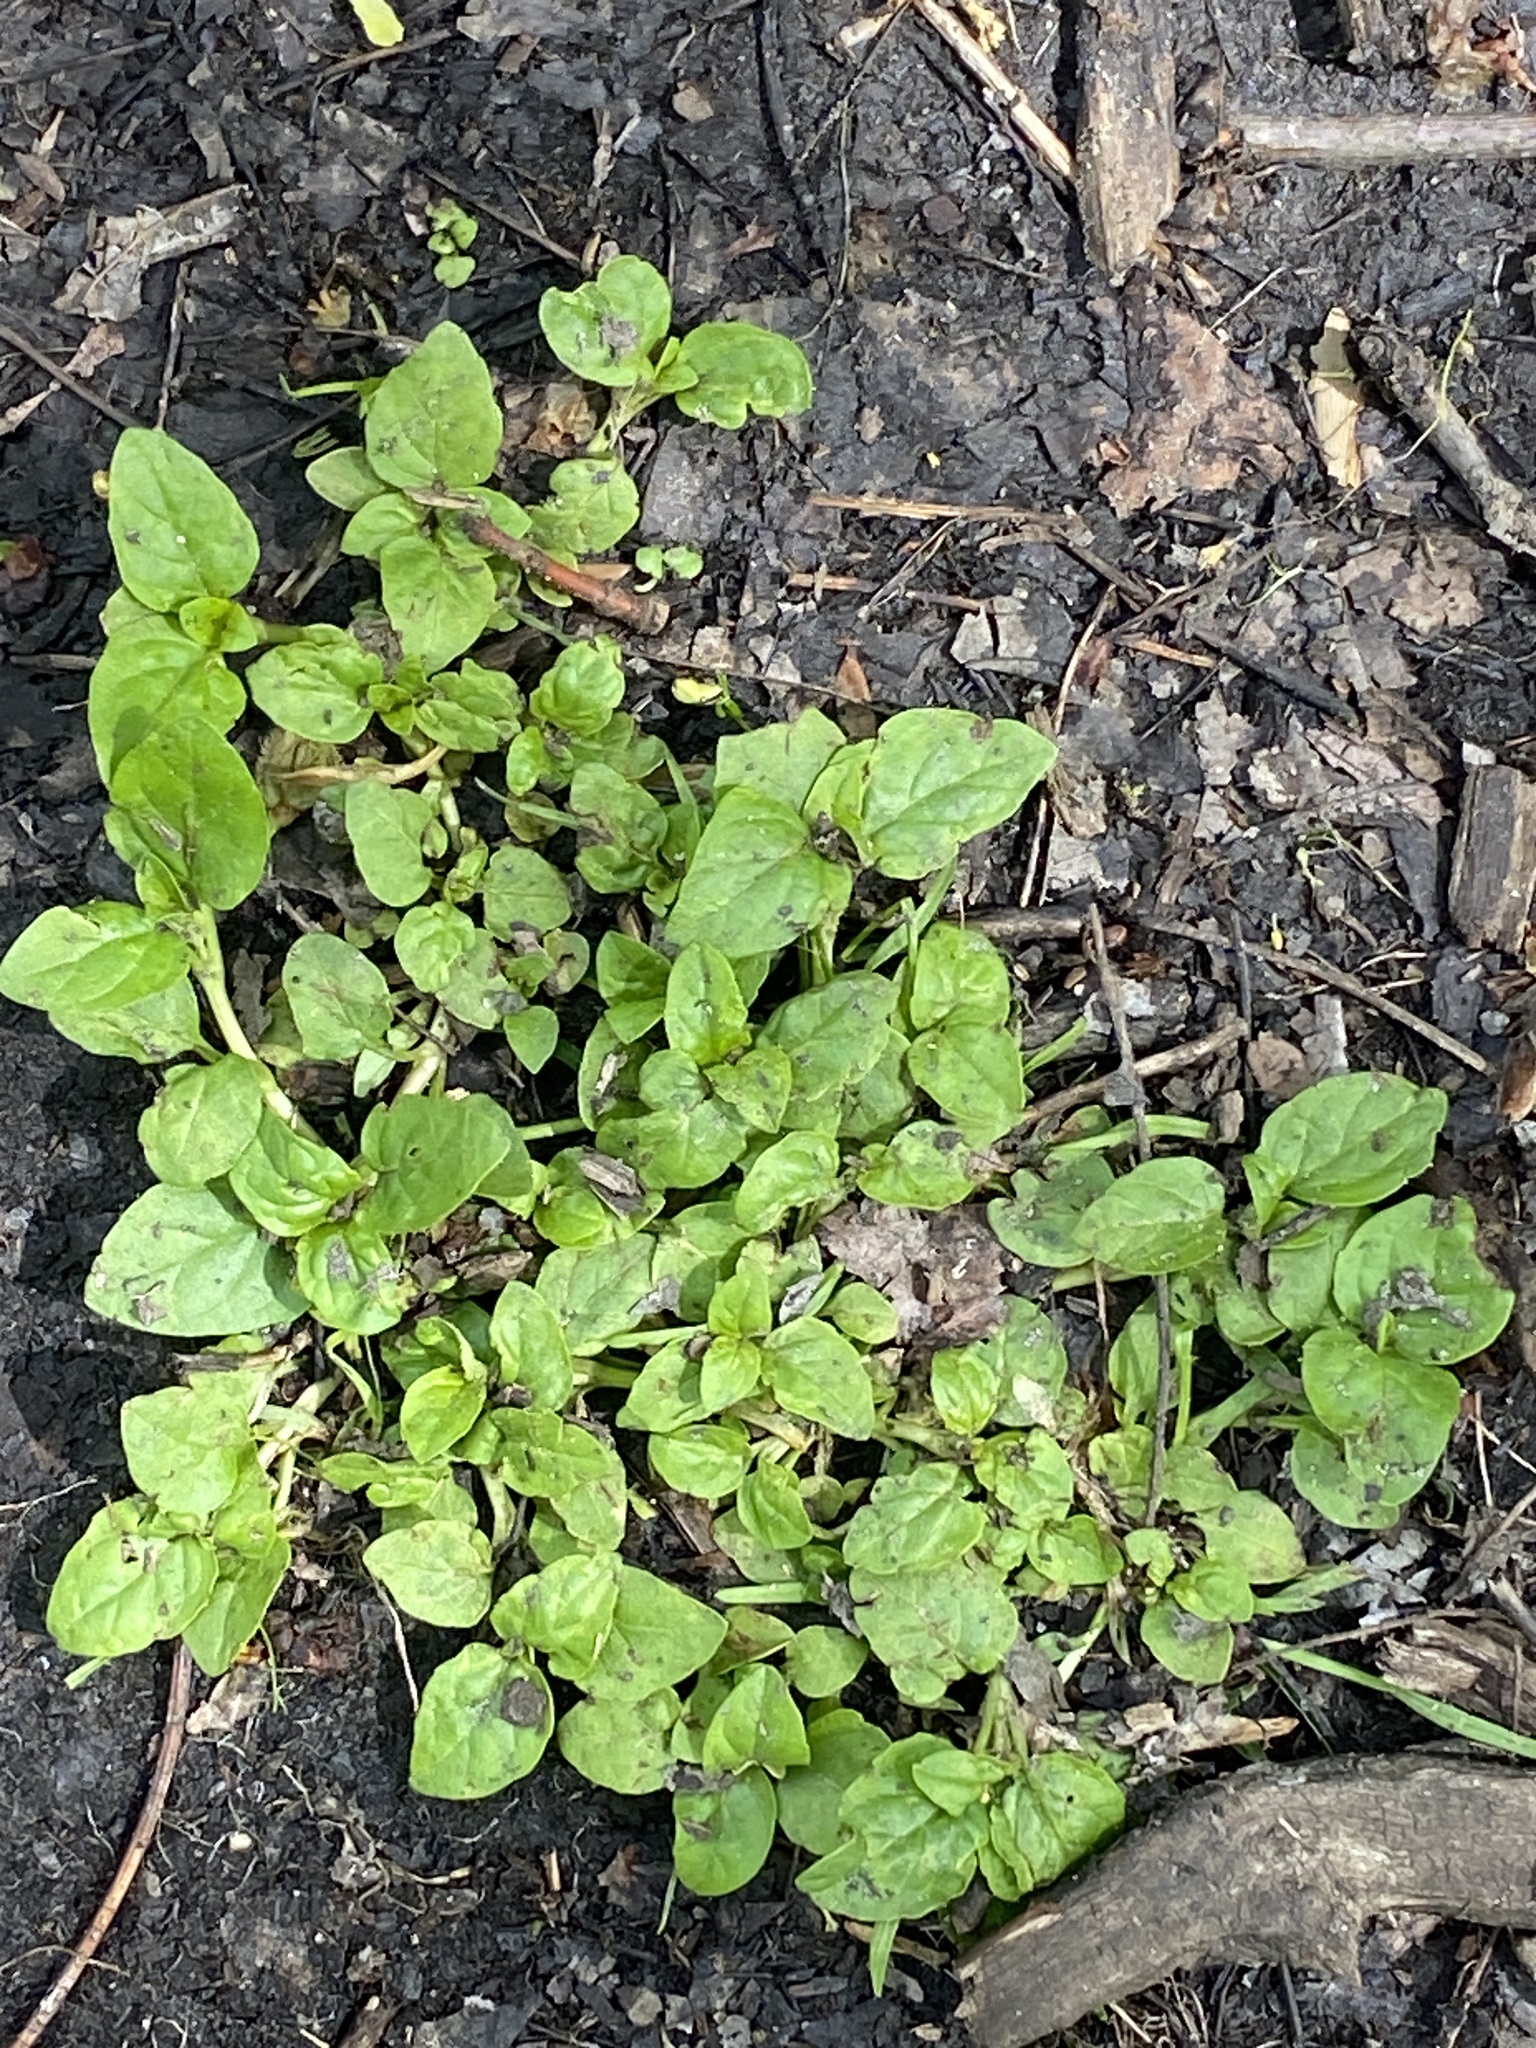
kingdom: Plantae
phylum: Tracheophyta
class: Magnoliopsida
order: Lamiales
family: Lamiaceae
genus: Prunella
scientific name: Prunella vulgaris
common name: Heal-all
